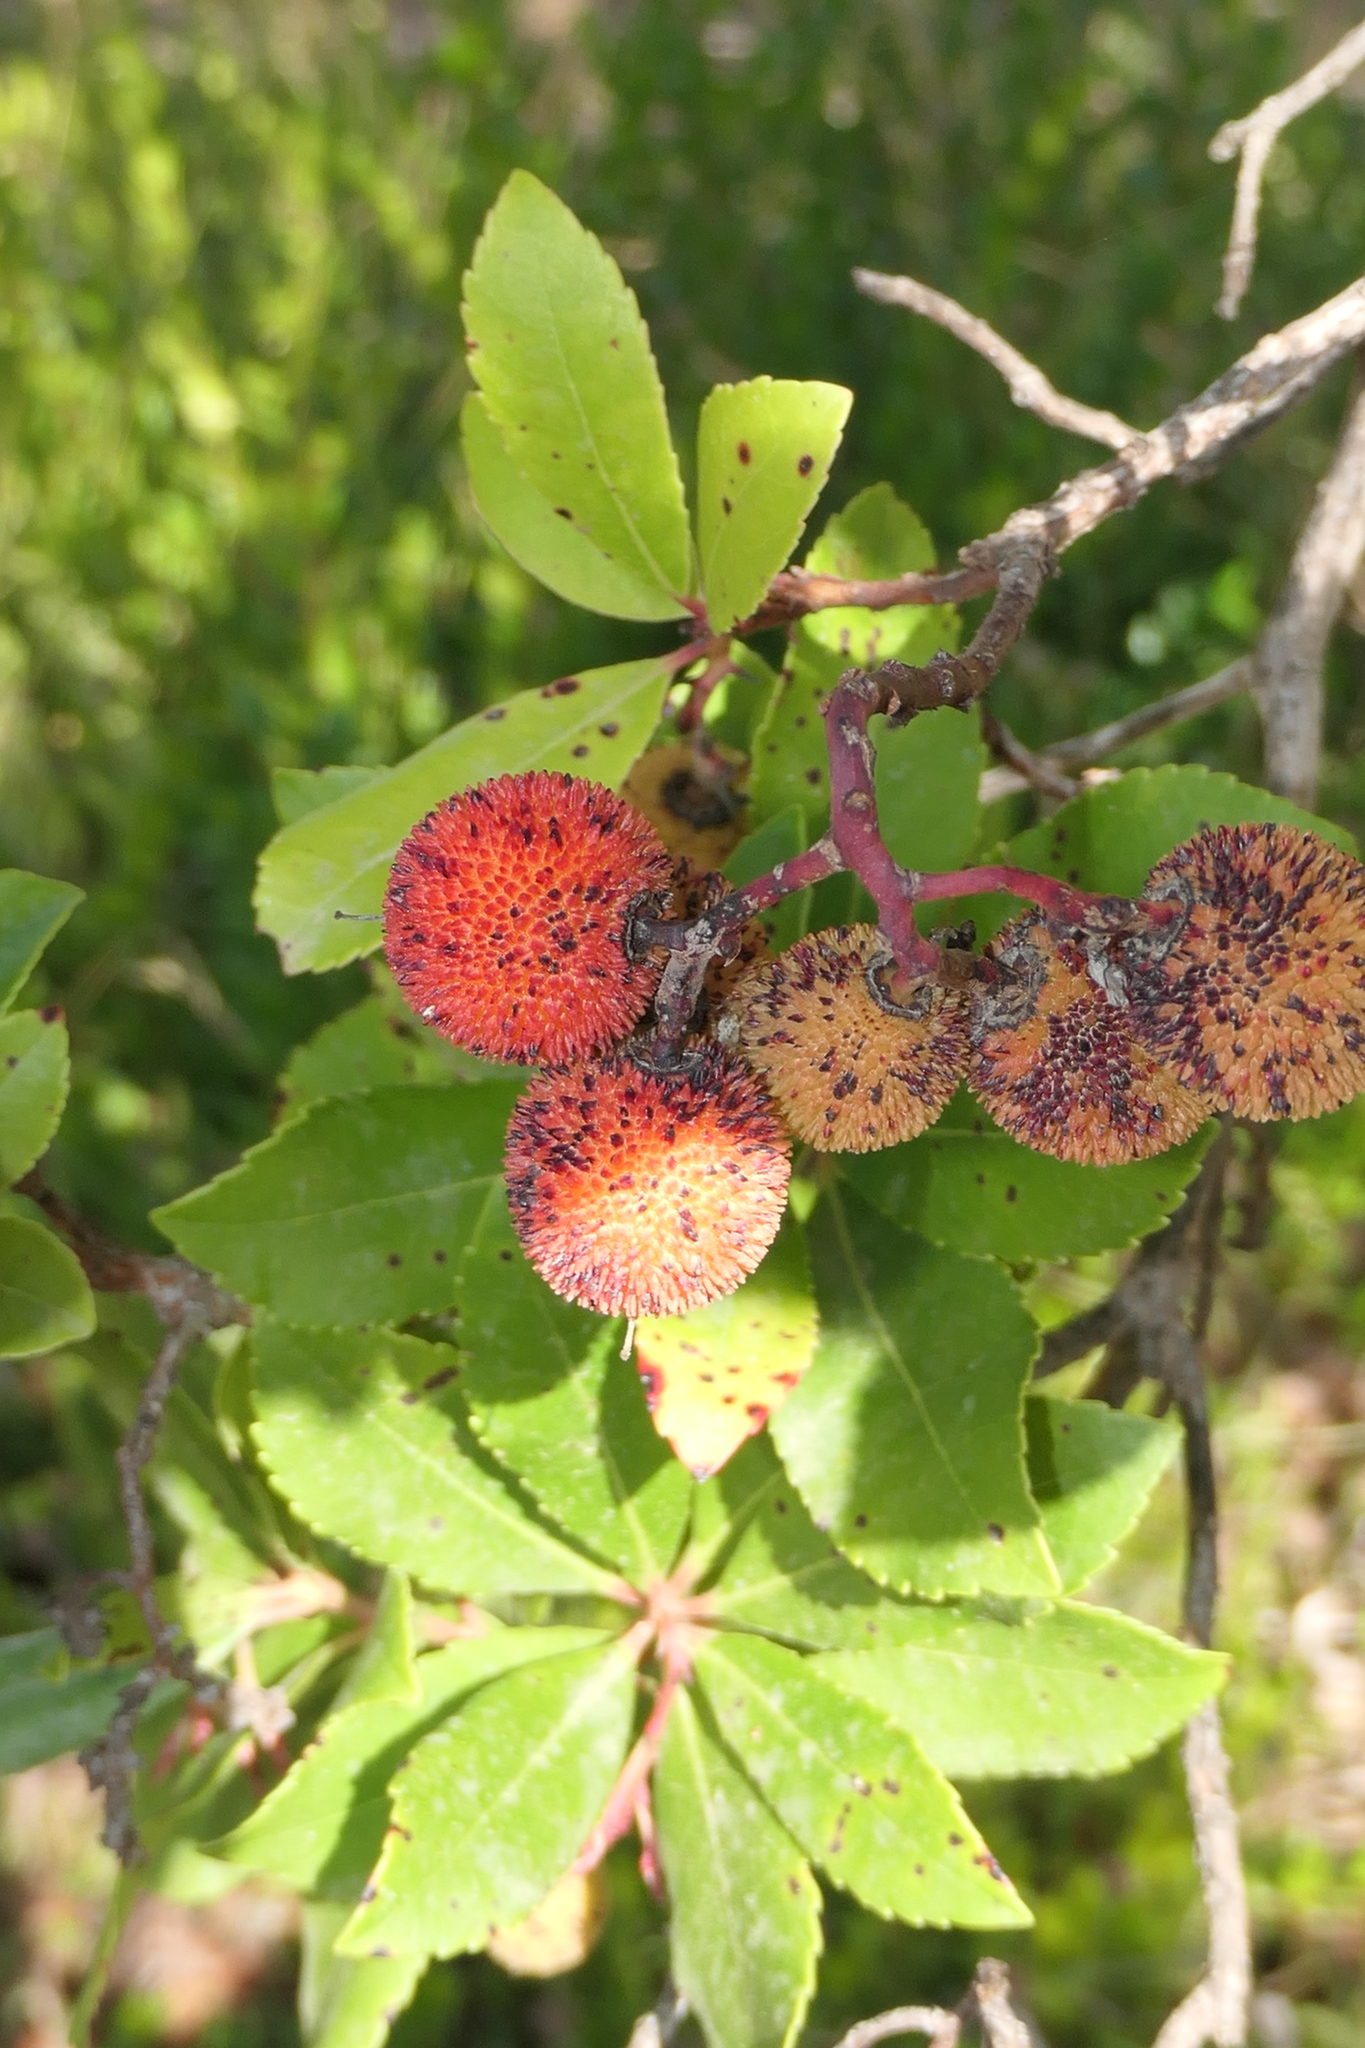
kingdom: Plantae
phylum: Tracheophyta
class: Magnoliopsida
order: Ericales
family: Ericaceae
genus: Arbutus
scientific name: Arbutus unedo
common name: Strawberry-tree
